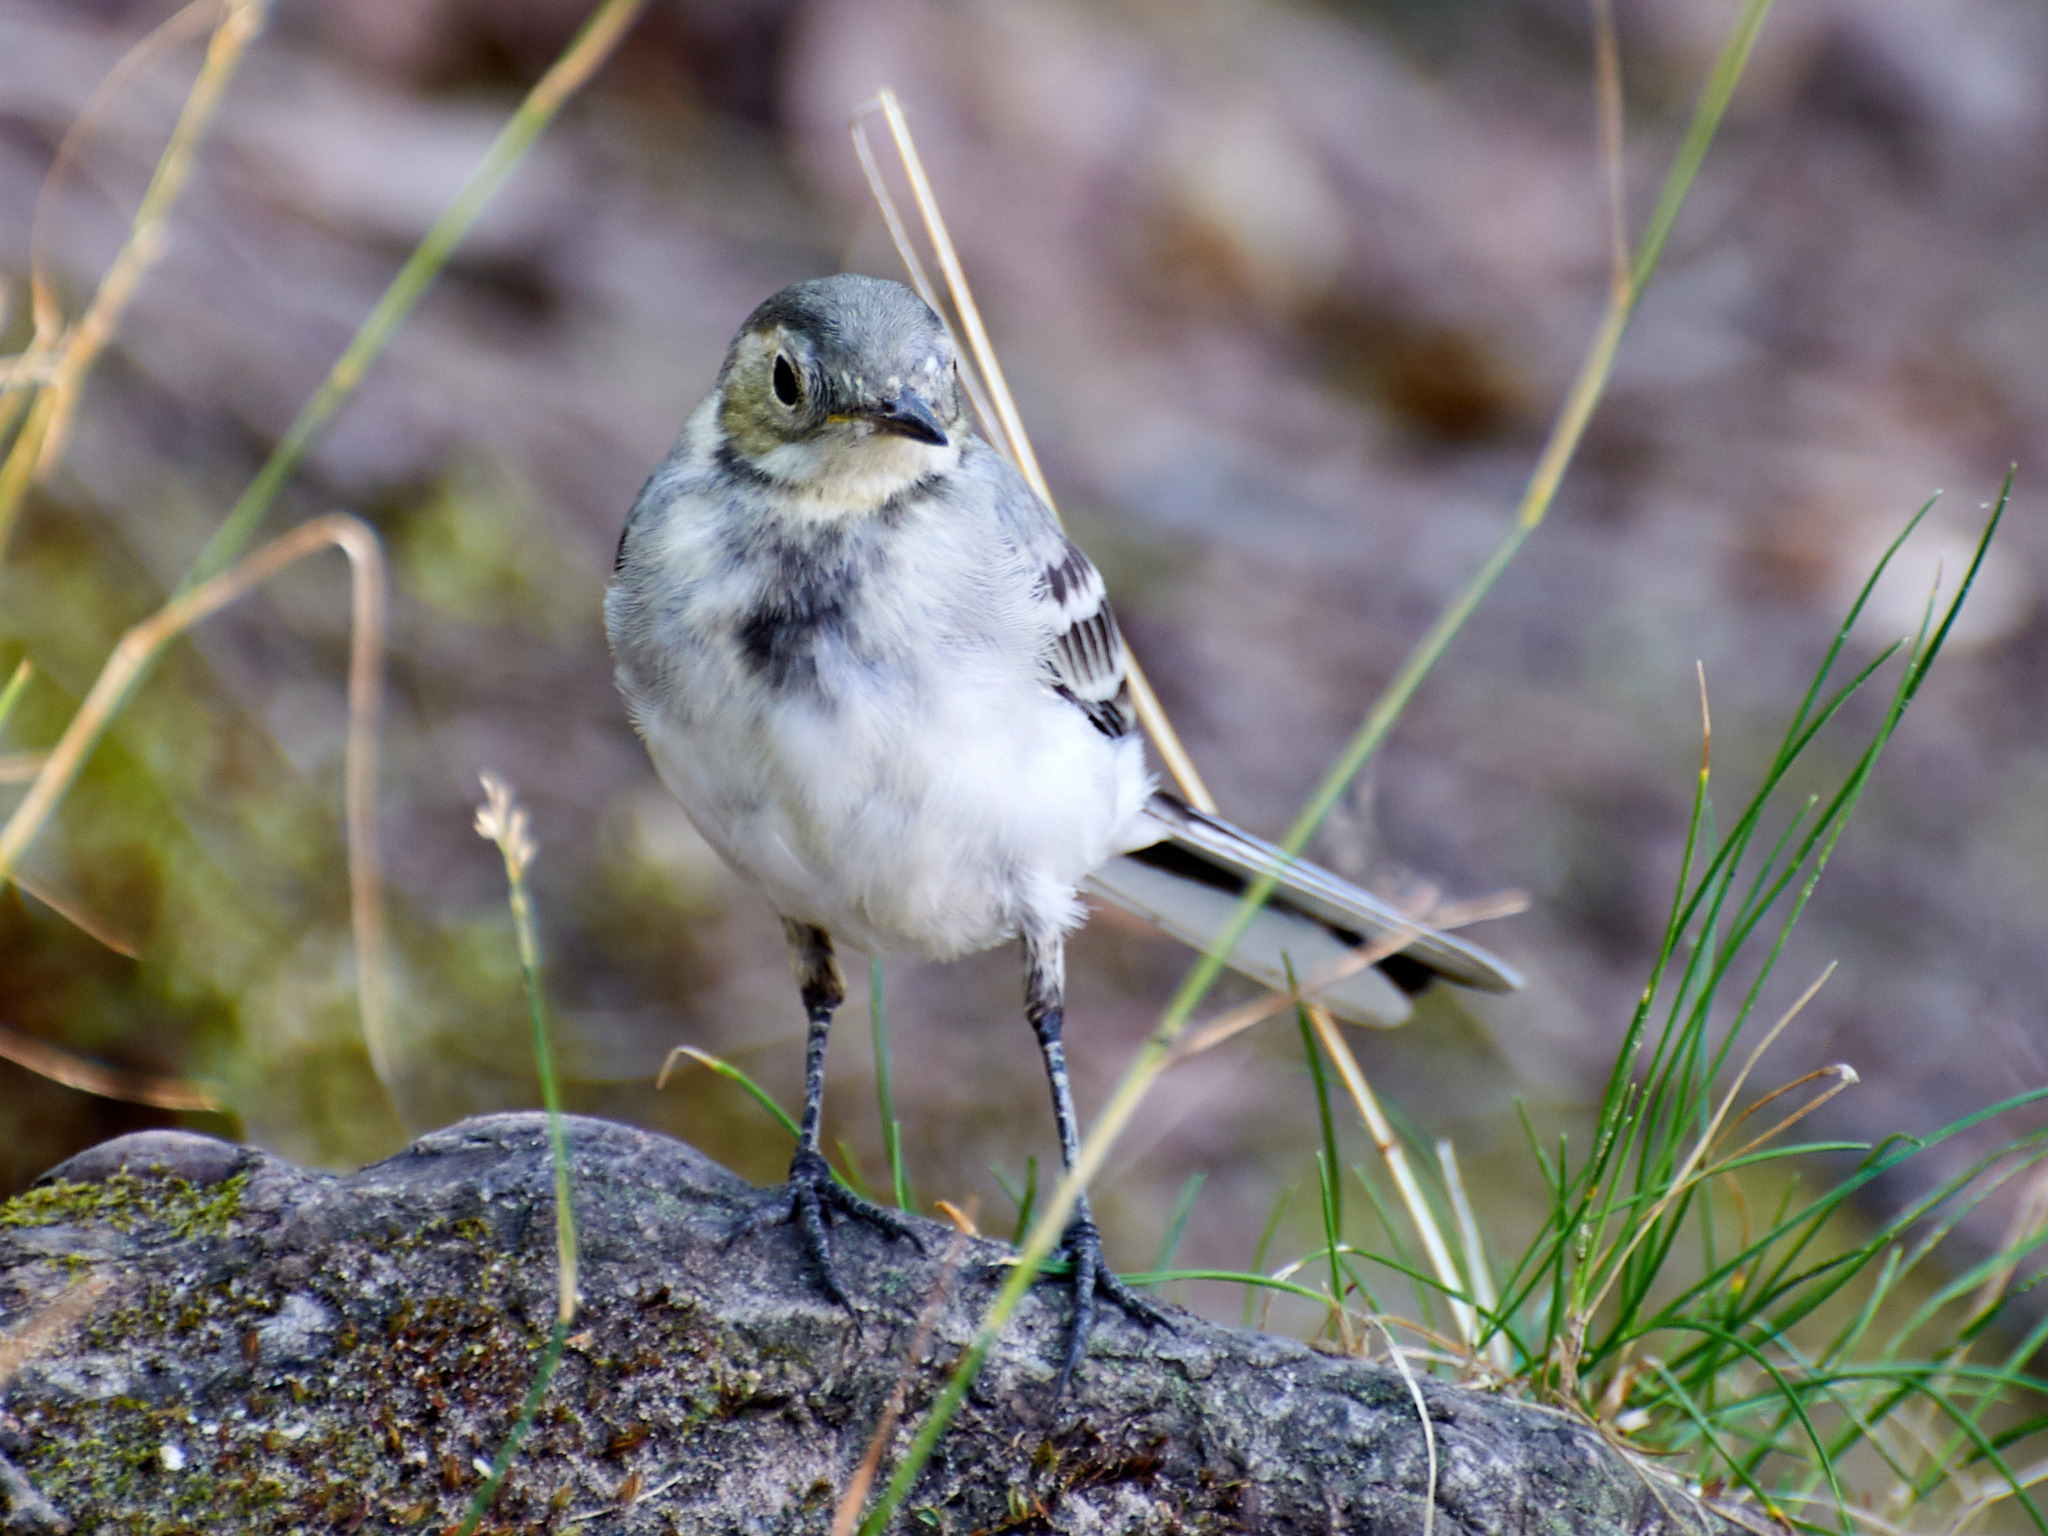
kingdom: Animalia
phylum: Chordata
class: Aves
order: Passeriformes
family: Motacillidae
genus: Motacilla
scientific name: Motacilla alba
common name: White wagtail
